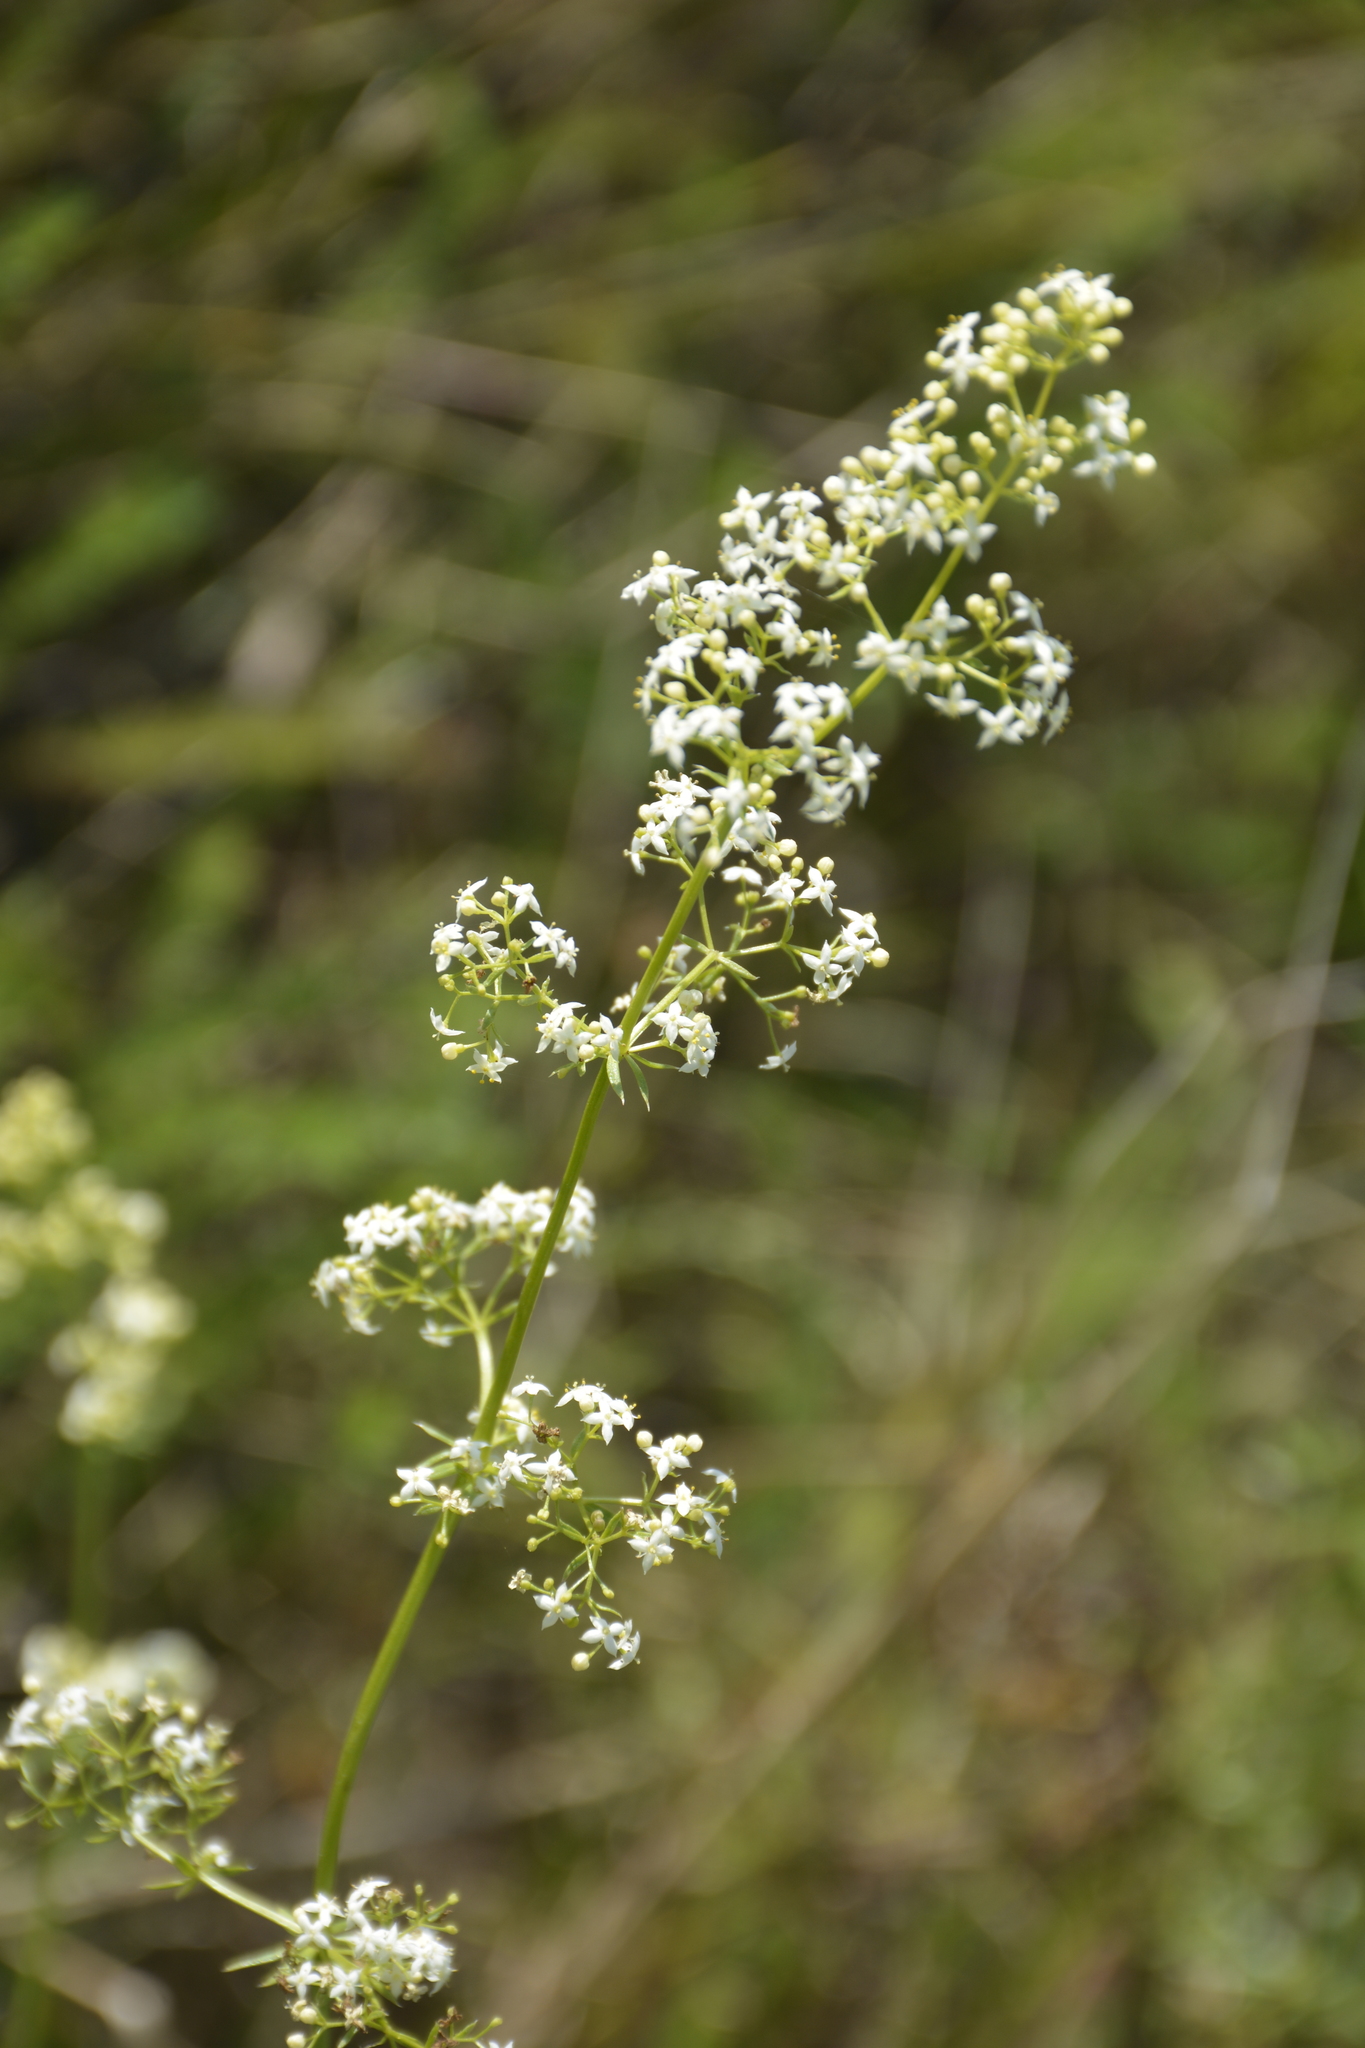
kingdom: Plantae
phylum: Tracheophyta
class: Magnoliopsida
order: Gentianales
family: Rubiaceae
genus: Galium
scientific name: Galium mollugo
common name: Hedge bedstraw
